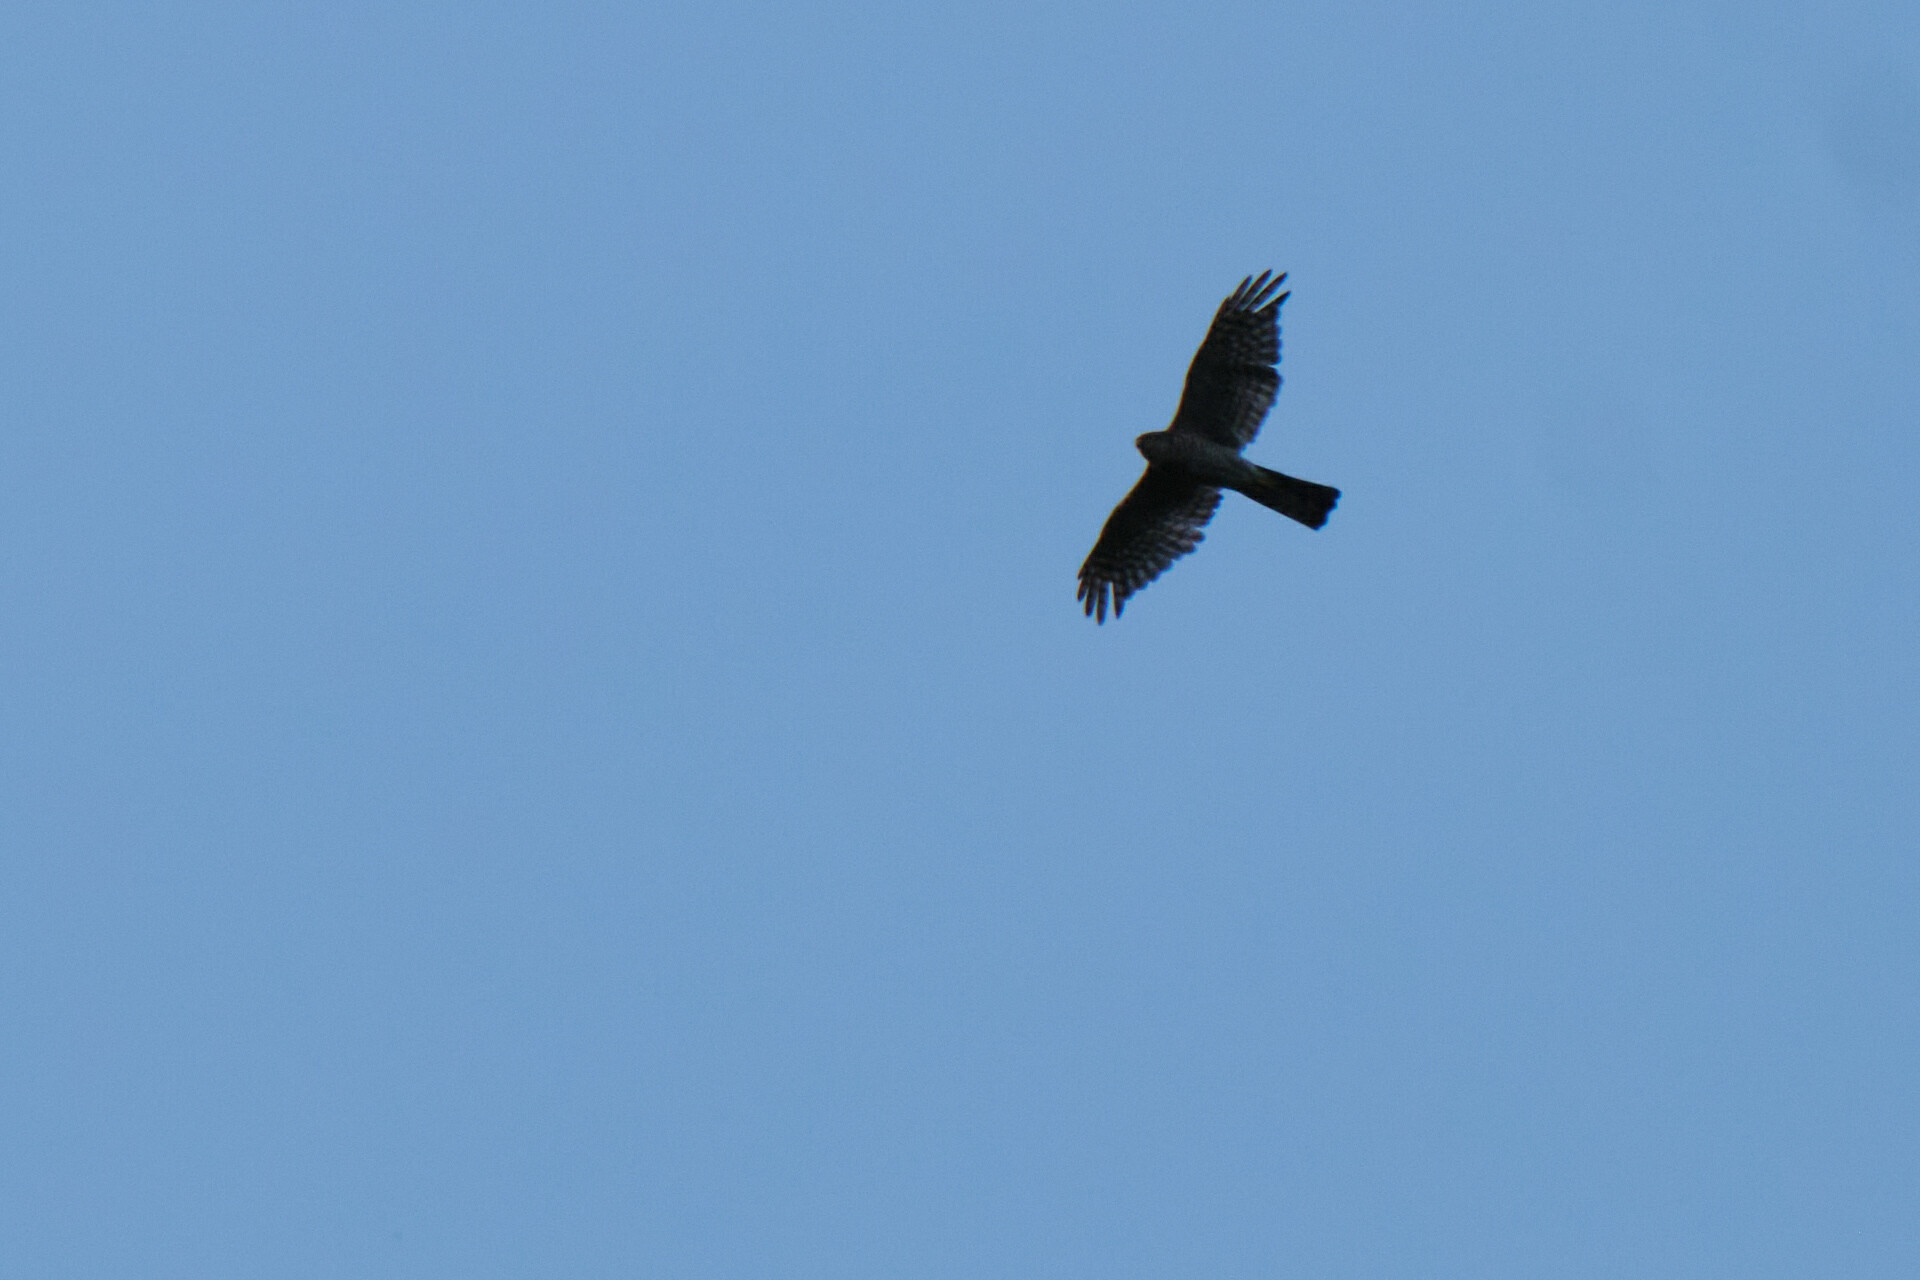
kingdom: Animalia
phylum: Chordata
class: Aves
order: Accipitriformes
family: Accipitridae
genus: Accipiter
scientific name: Accipiter nisus
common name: Eurasian sparrowhawk
